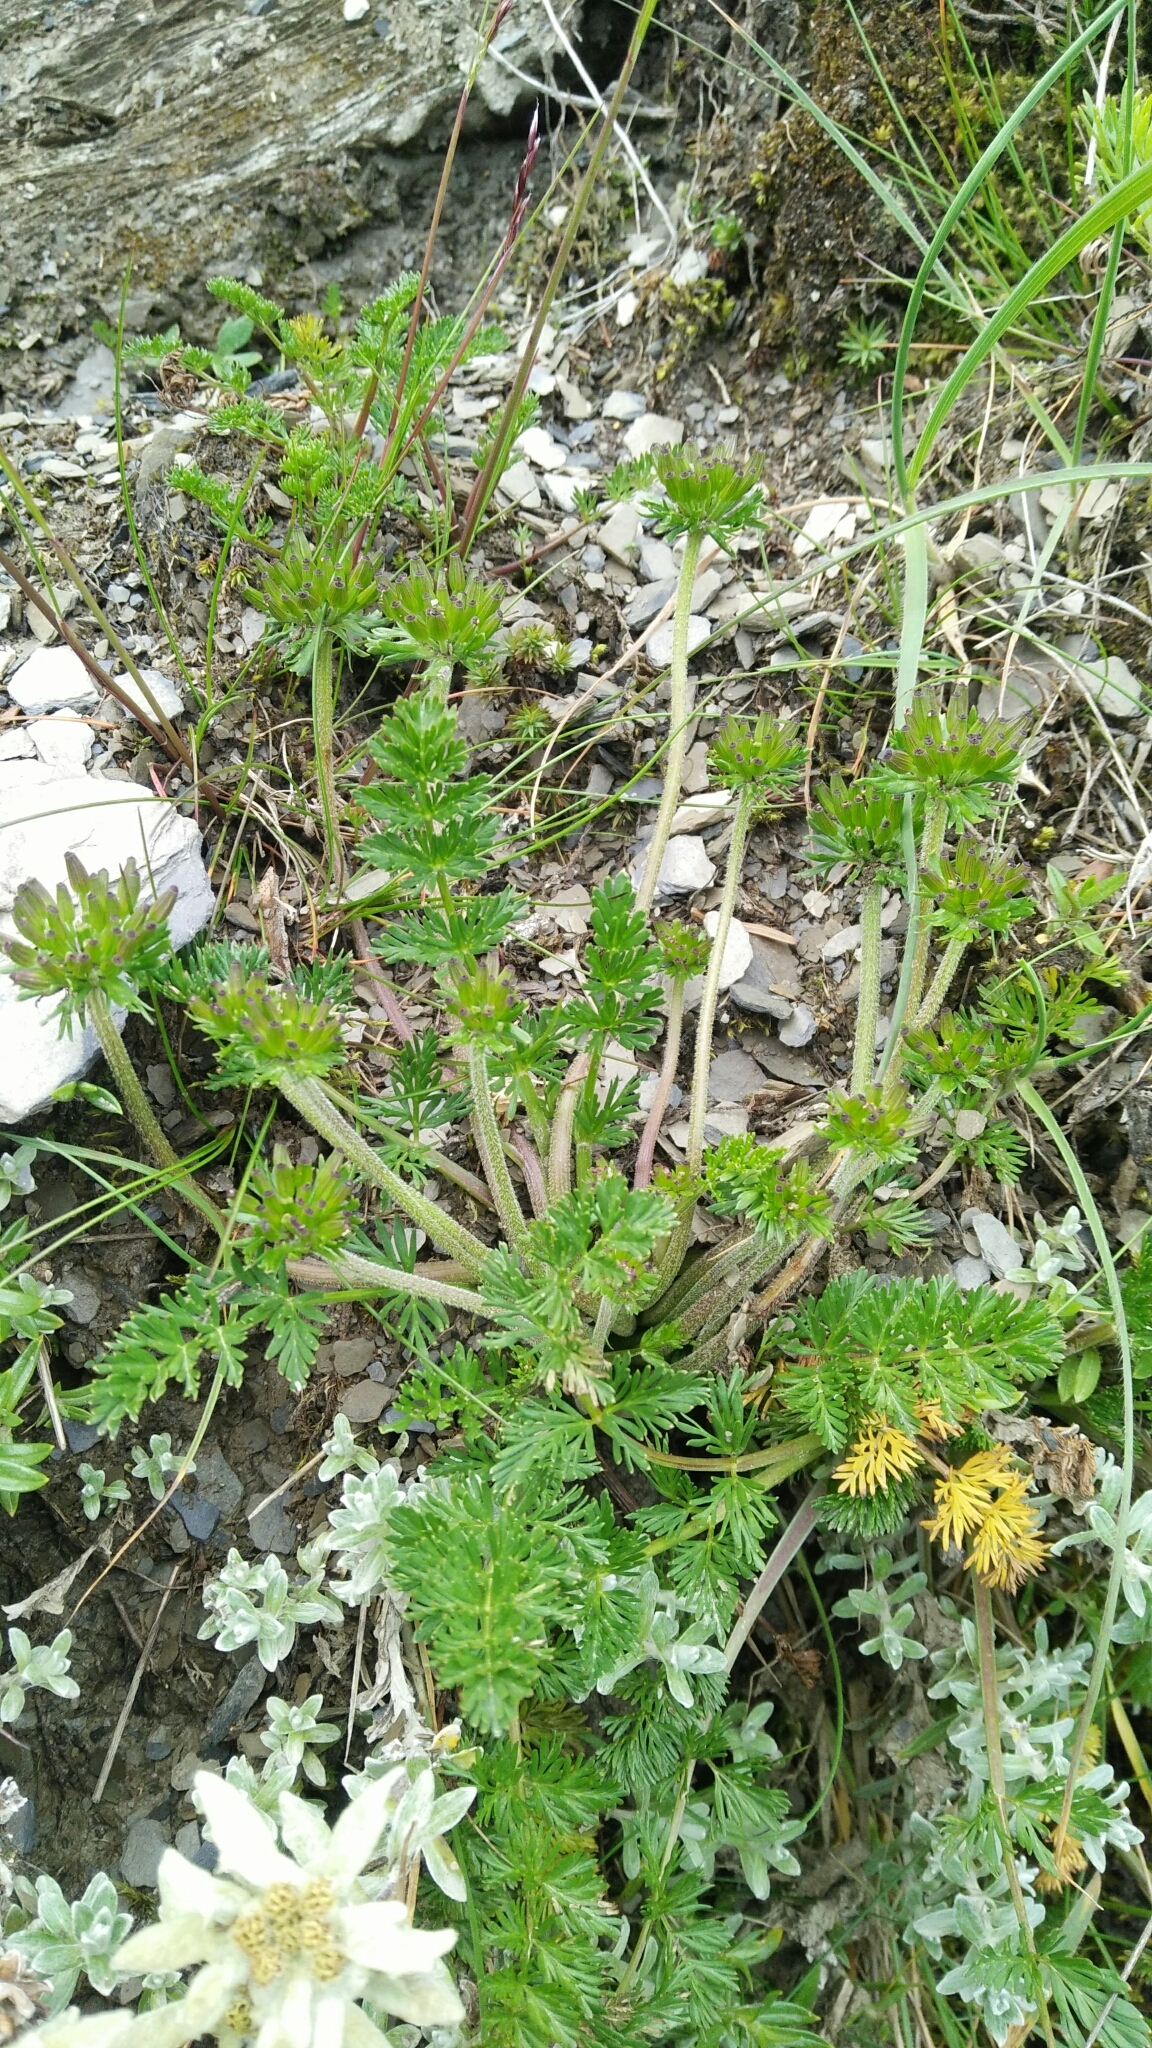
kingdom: Plantae
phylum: Tracheophyta
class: Magnoliopsida
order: Apiales
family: Apiaceae
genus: Chaerophyllum
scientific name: Chaerophyllum taiwanianum
